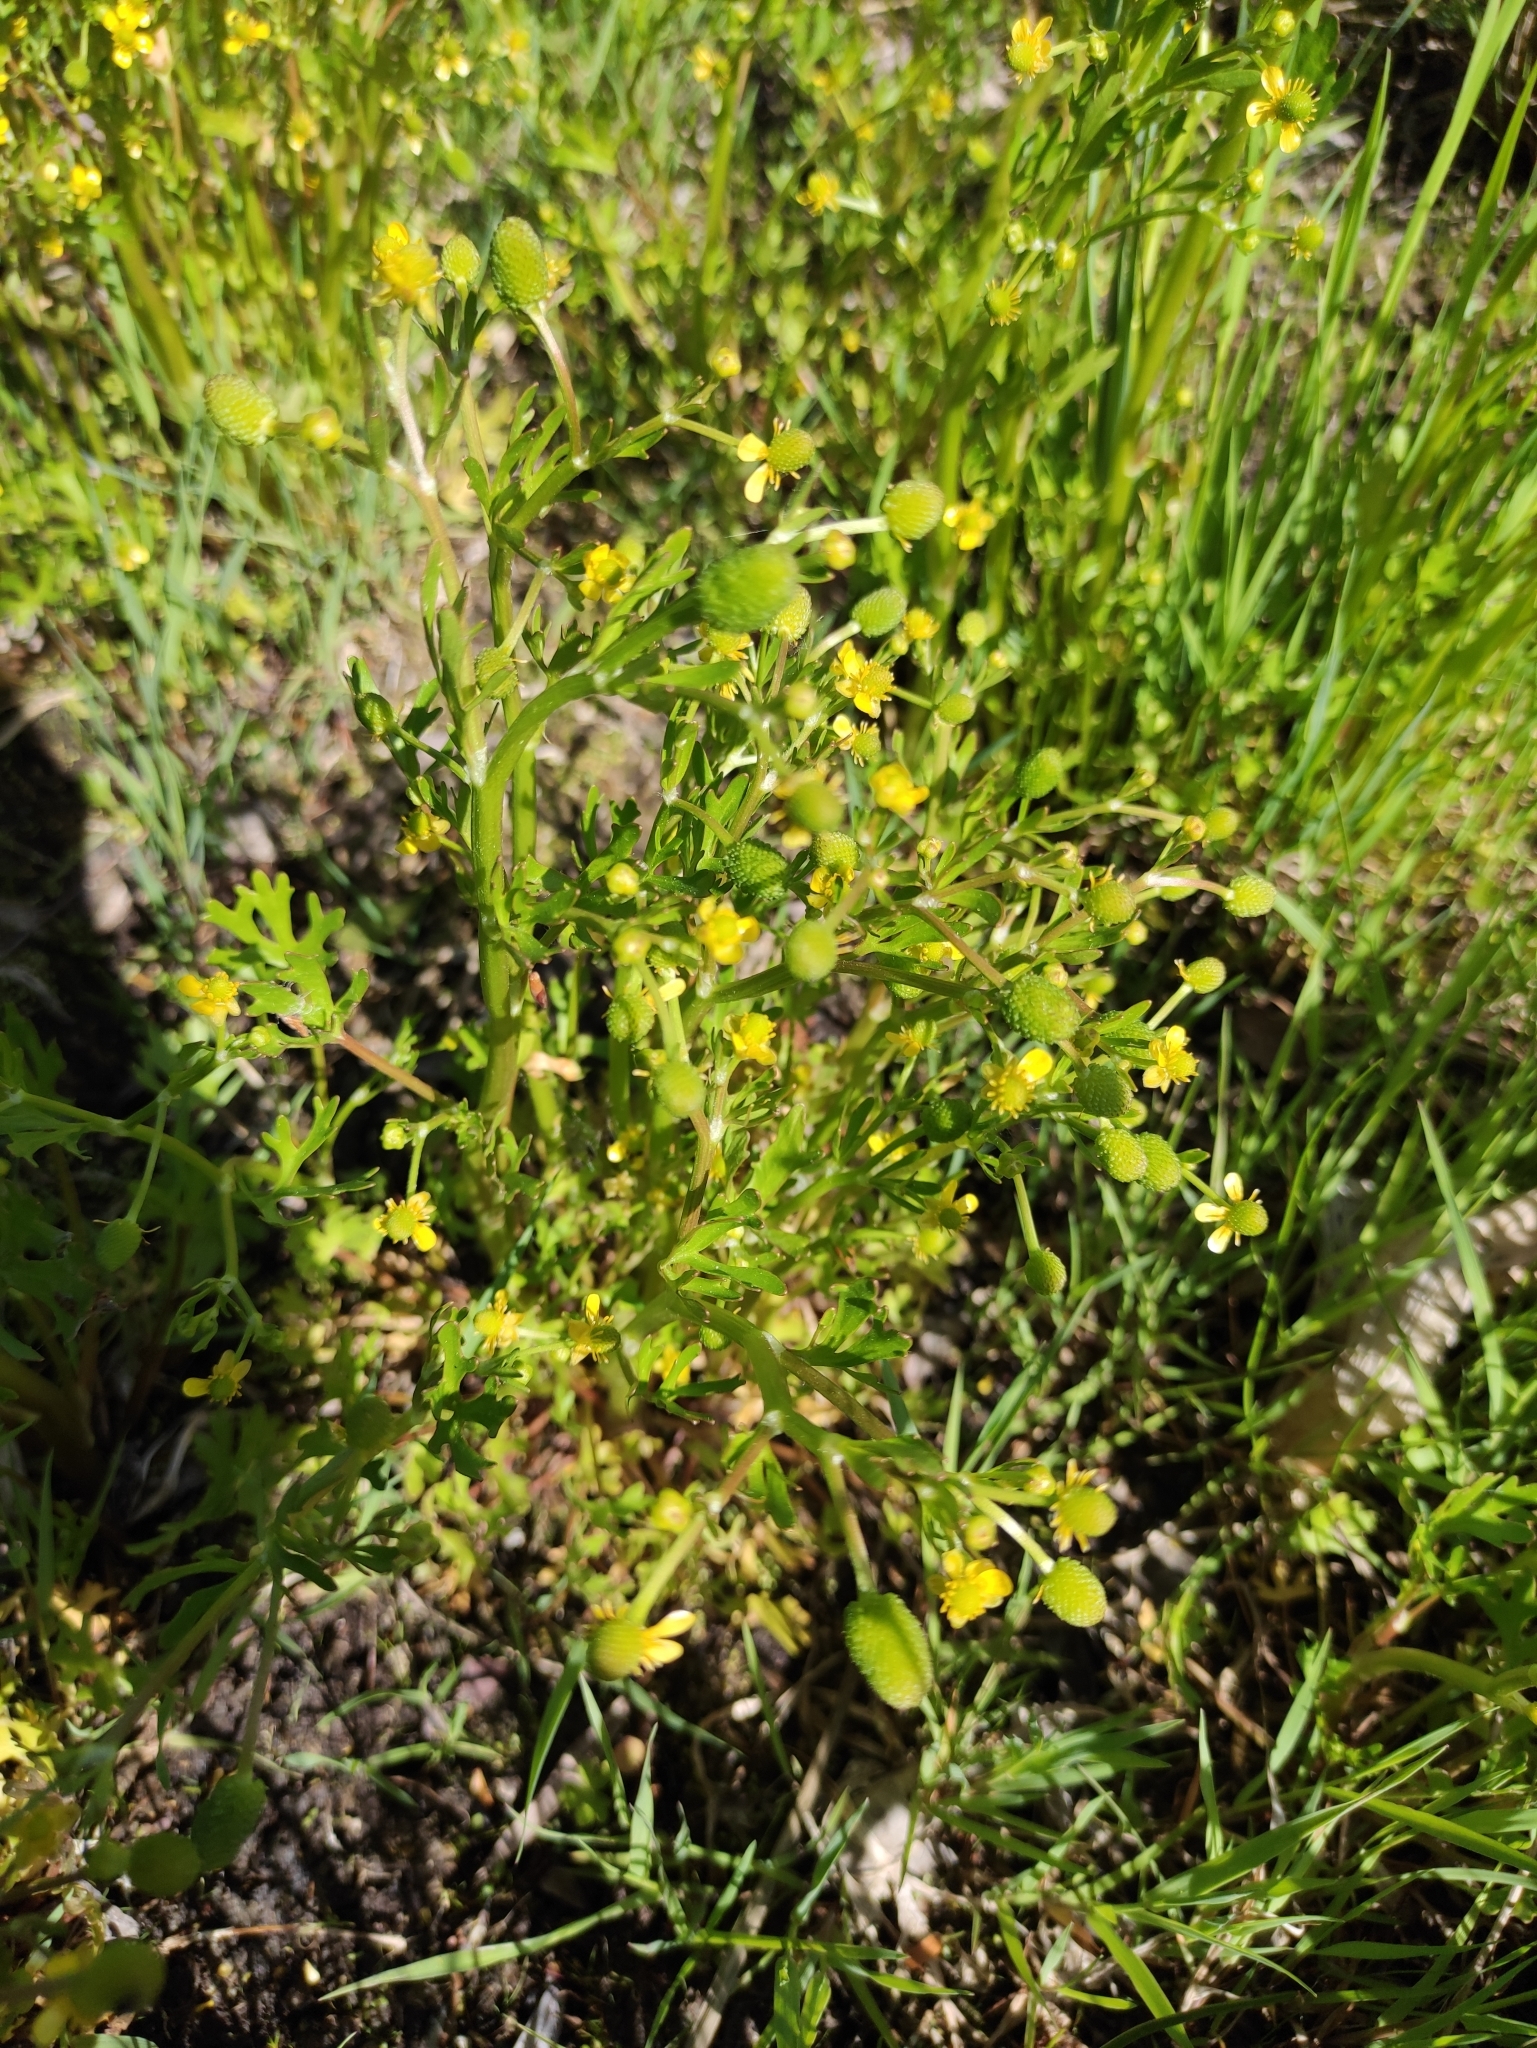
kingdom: Plantae
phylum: Tracheophyta
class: Magnoliopsida
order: Ranunculales
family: Ranunculaceae
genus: Ranunculus
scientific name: Ranunculus sceleratus
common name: Celery-leaved buttercup
